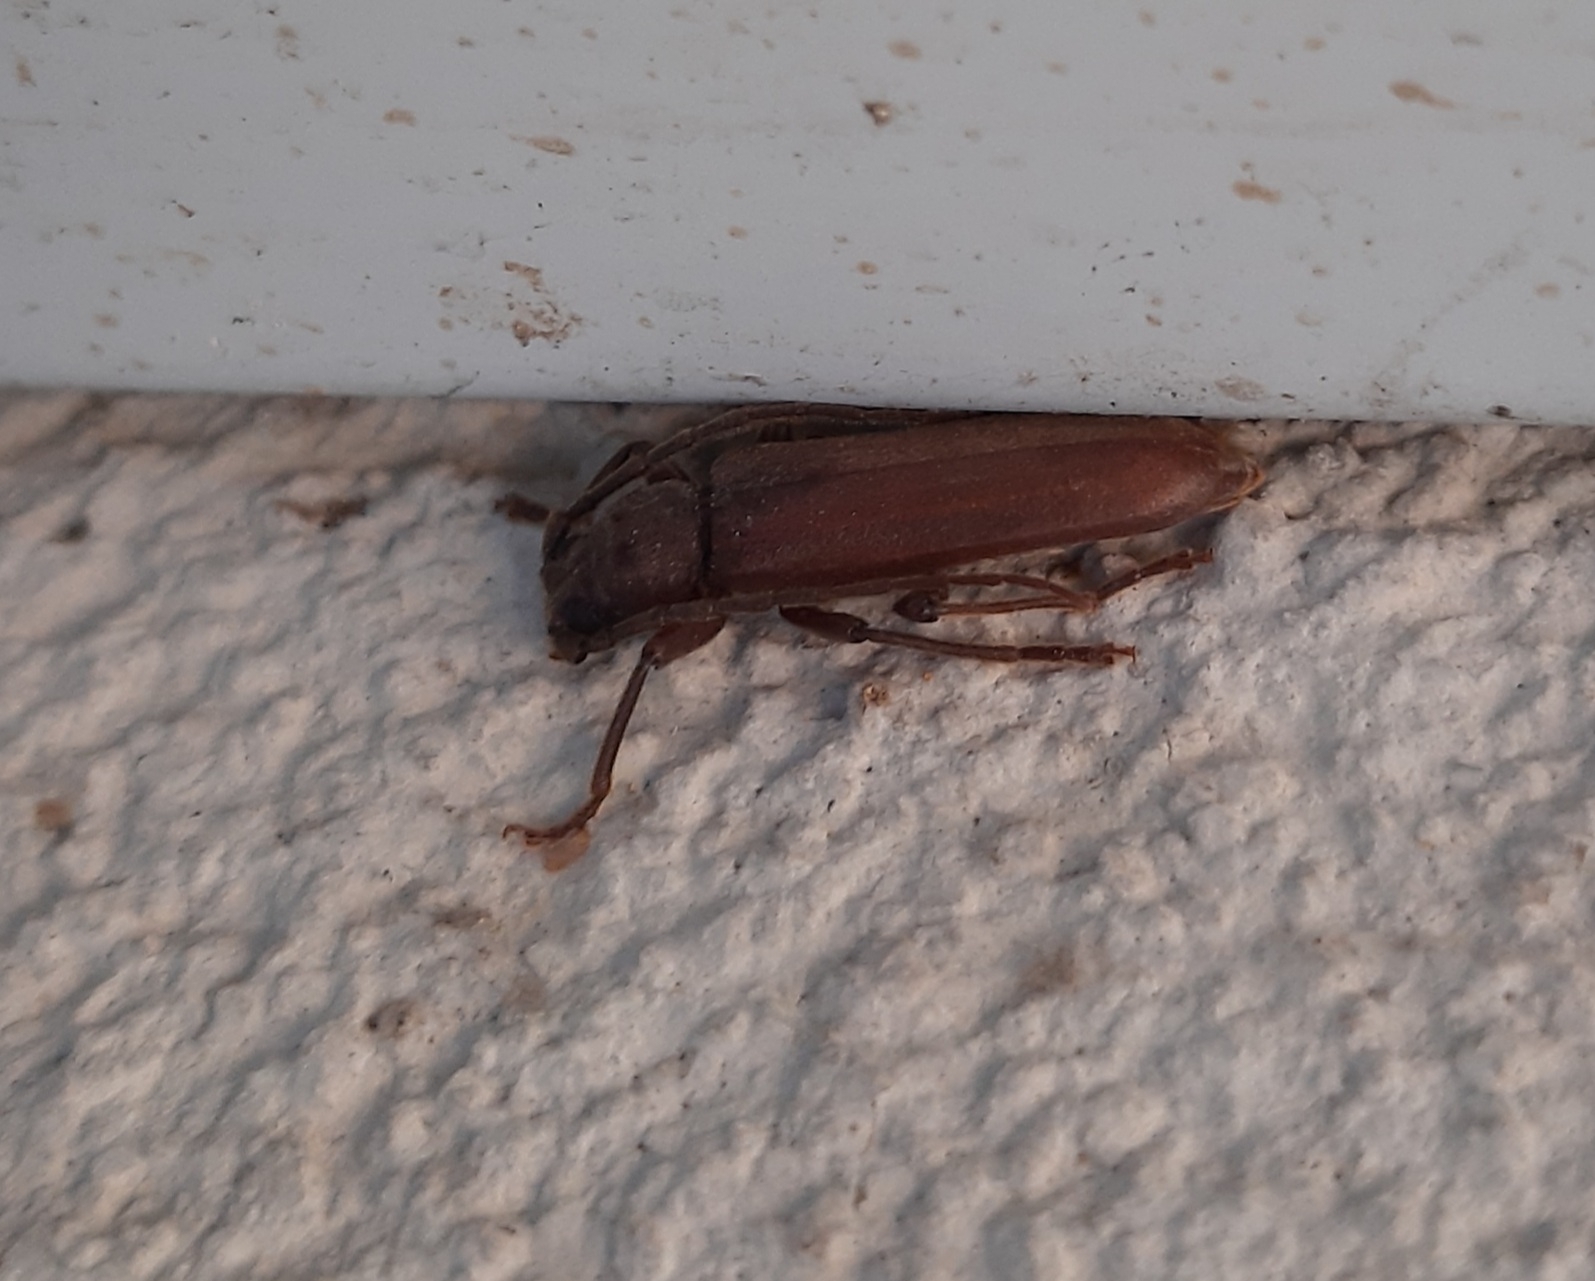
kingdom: Animalia
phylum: Arthropoda
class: Insecta
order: Coleoptera
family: Cerambycidae
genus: Arhopalus
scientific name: Arhopalus rusticus
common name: Rust pine borer
